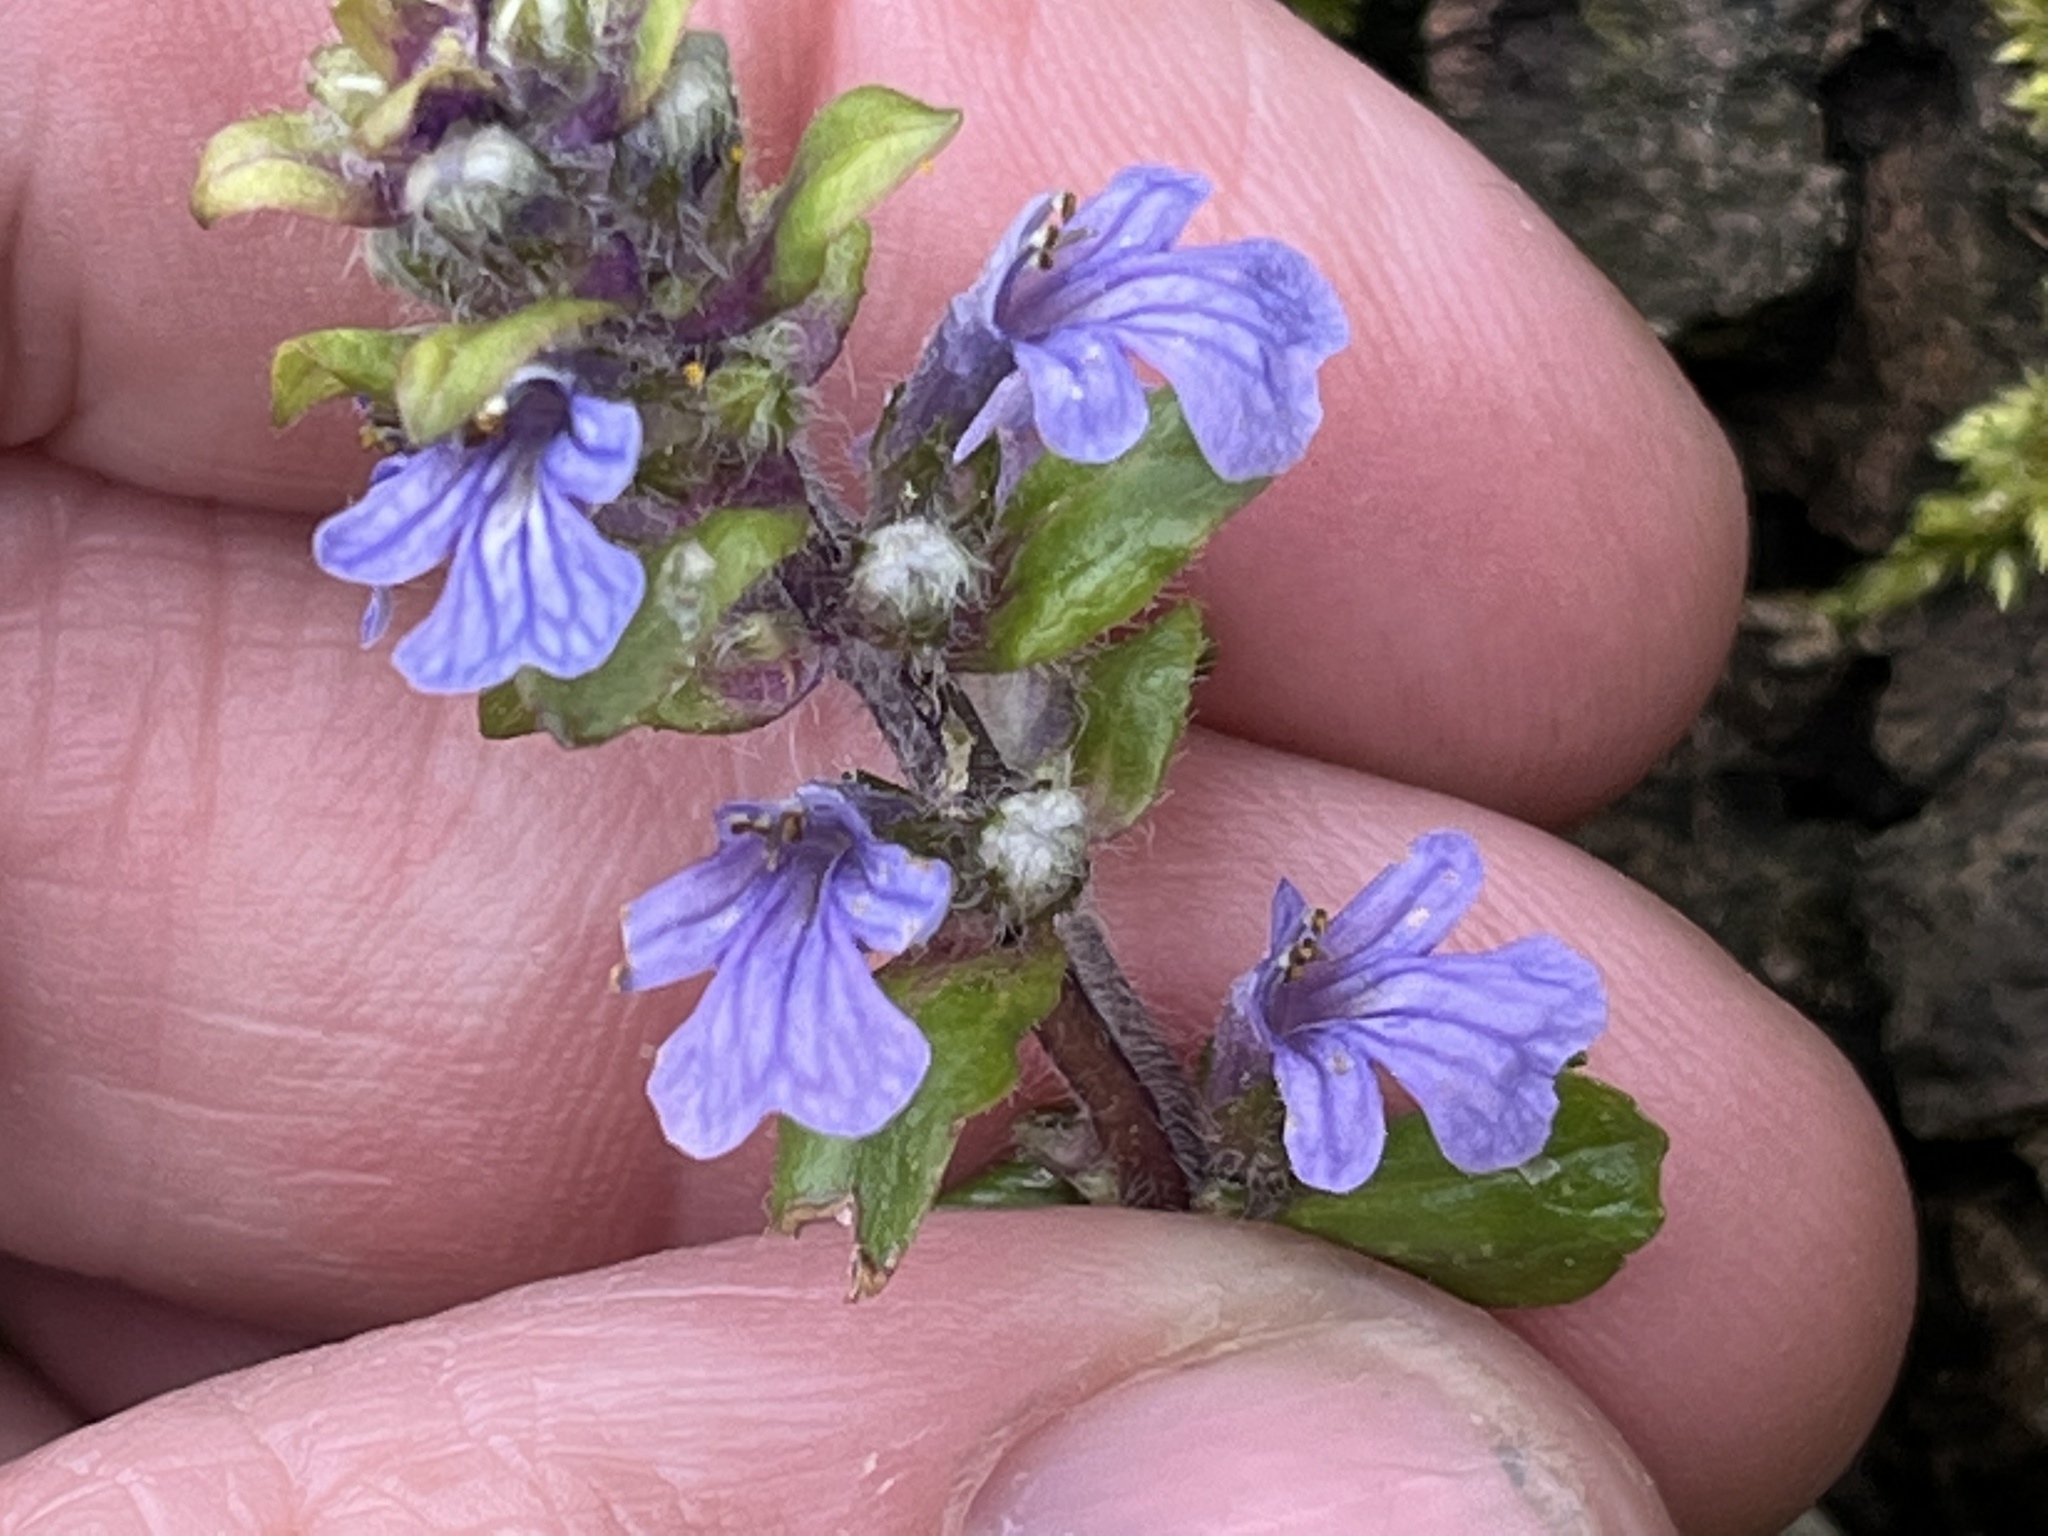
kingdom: Plantae
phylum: Tracheophyta
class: Magnoliopsida
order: Lamiales
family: Lamiaceae
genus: Ajuga
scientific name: Ajuga reptans
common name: Bugle
